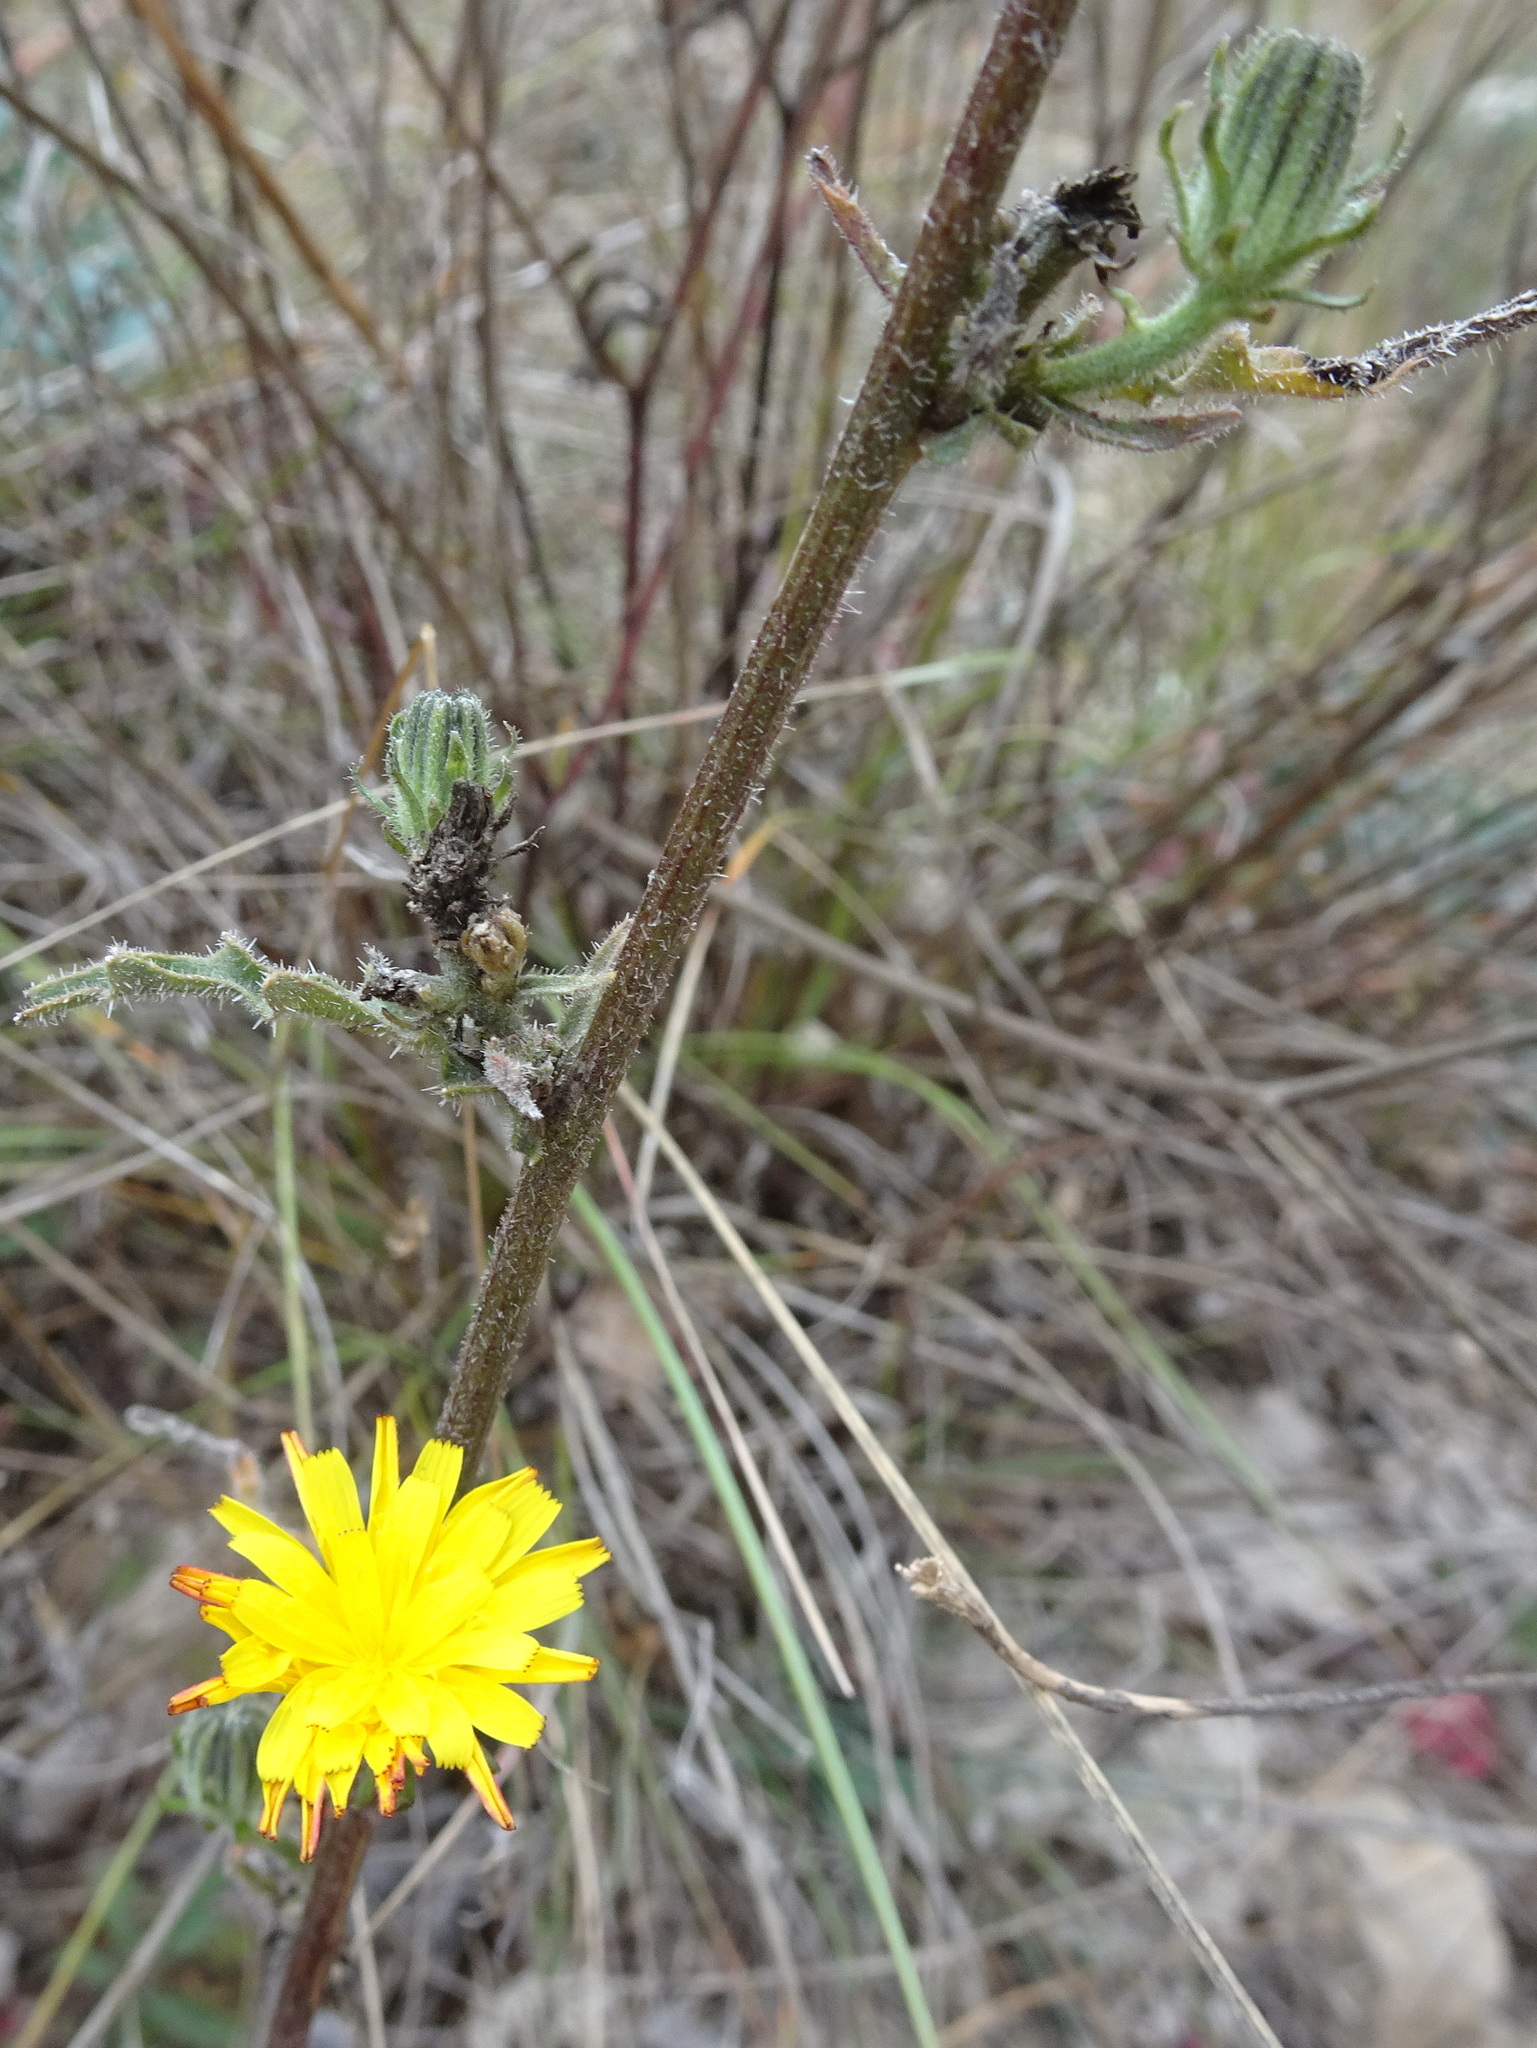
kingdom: Plantae
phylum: Tracheophyta
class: Magnoliopsida
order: Asterales
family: Asteraceae
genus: Picris
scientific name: Picris hieracioides
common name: Hawkweed oxtongue
